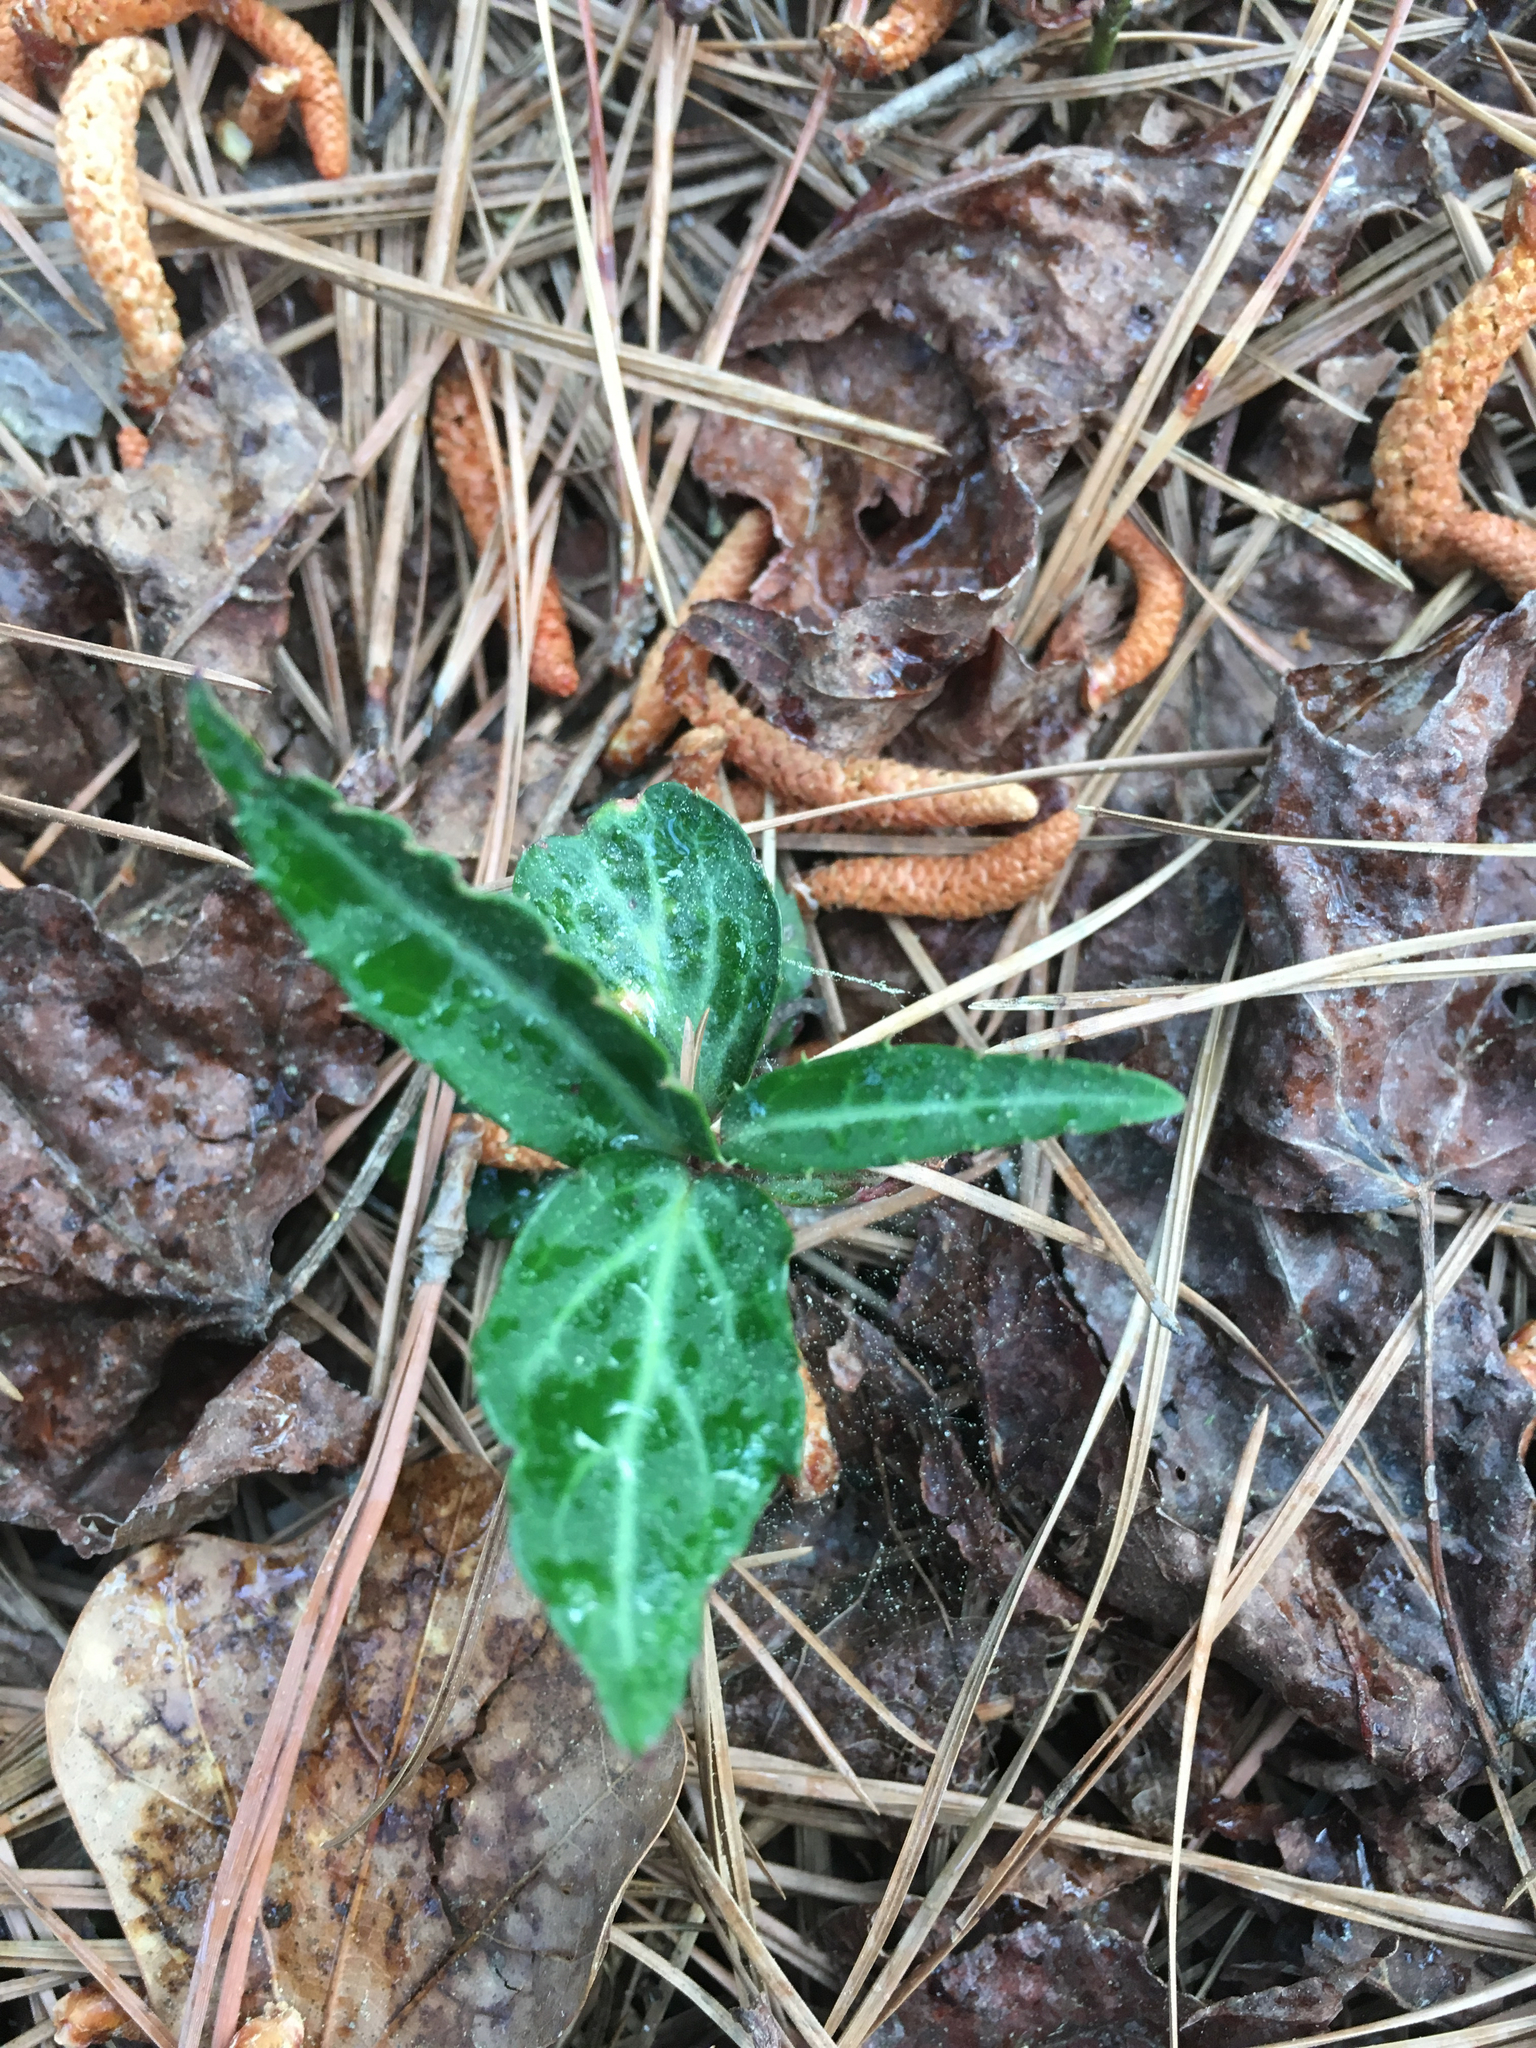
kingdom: Plantae
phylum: Tracheophyta
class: Magnoliopsida
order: Ericales
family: Ericaceae
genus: Chimaphila
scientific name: Chimaphila maculata
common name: Spotted pipsissewa
